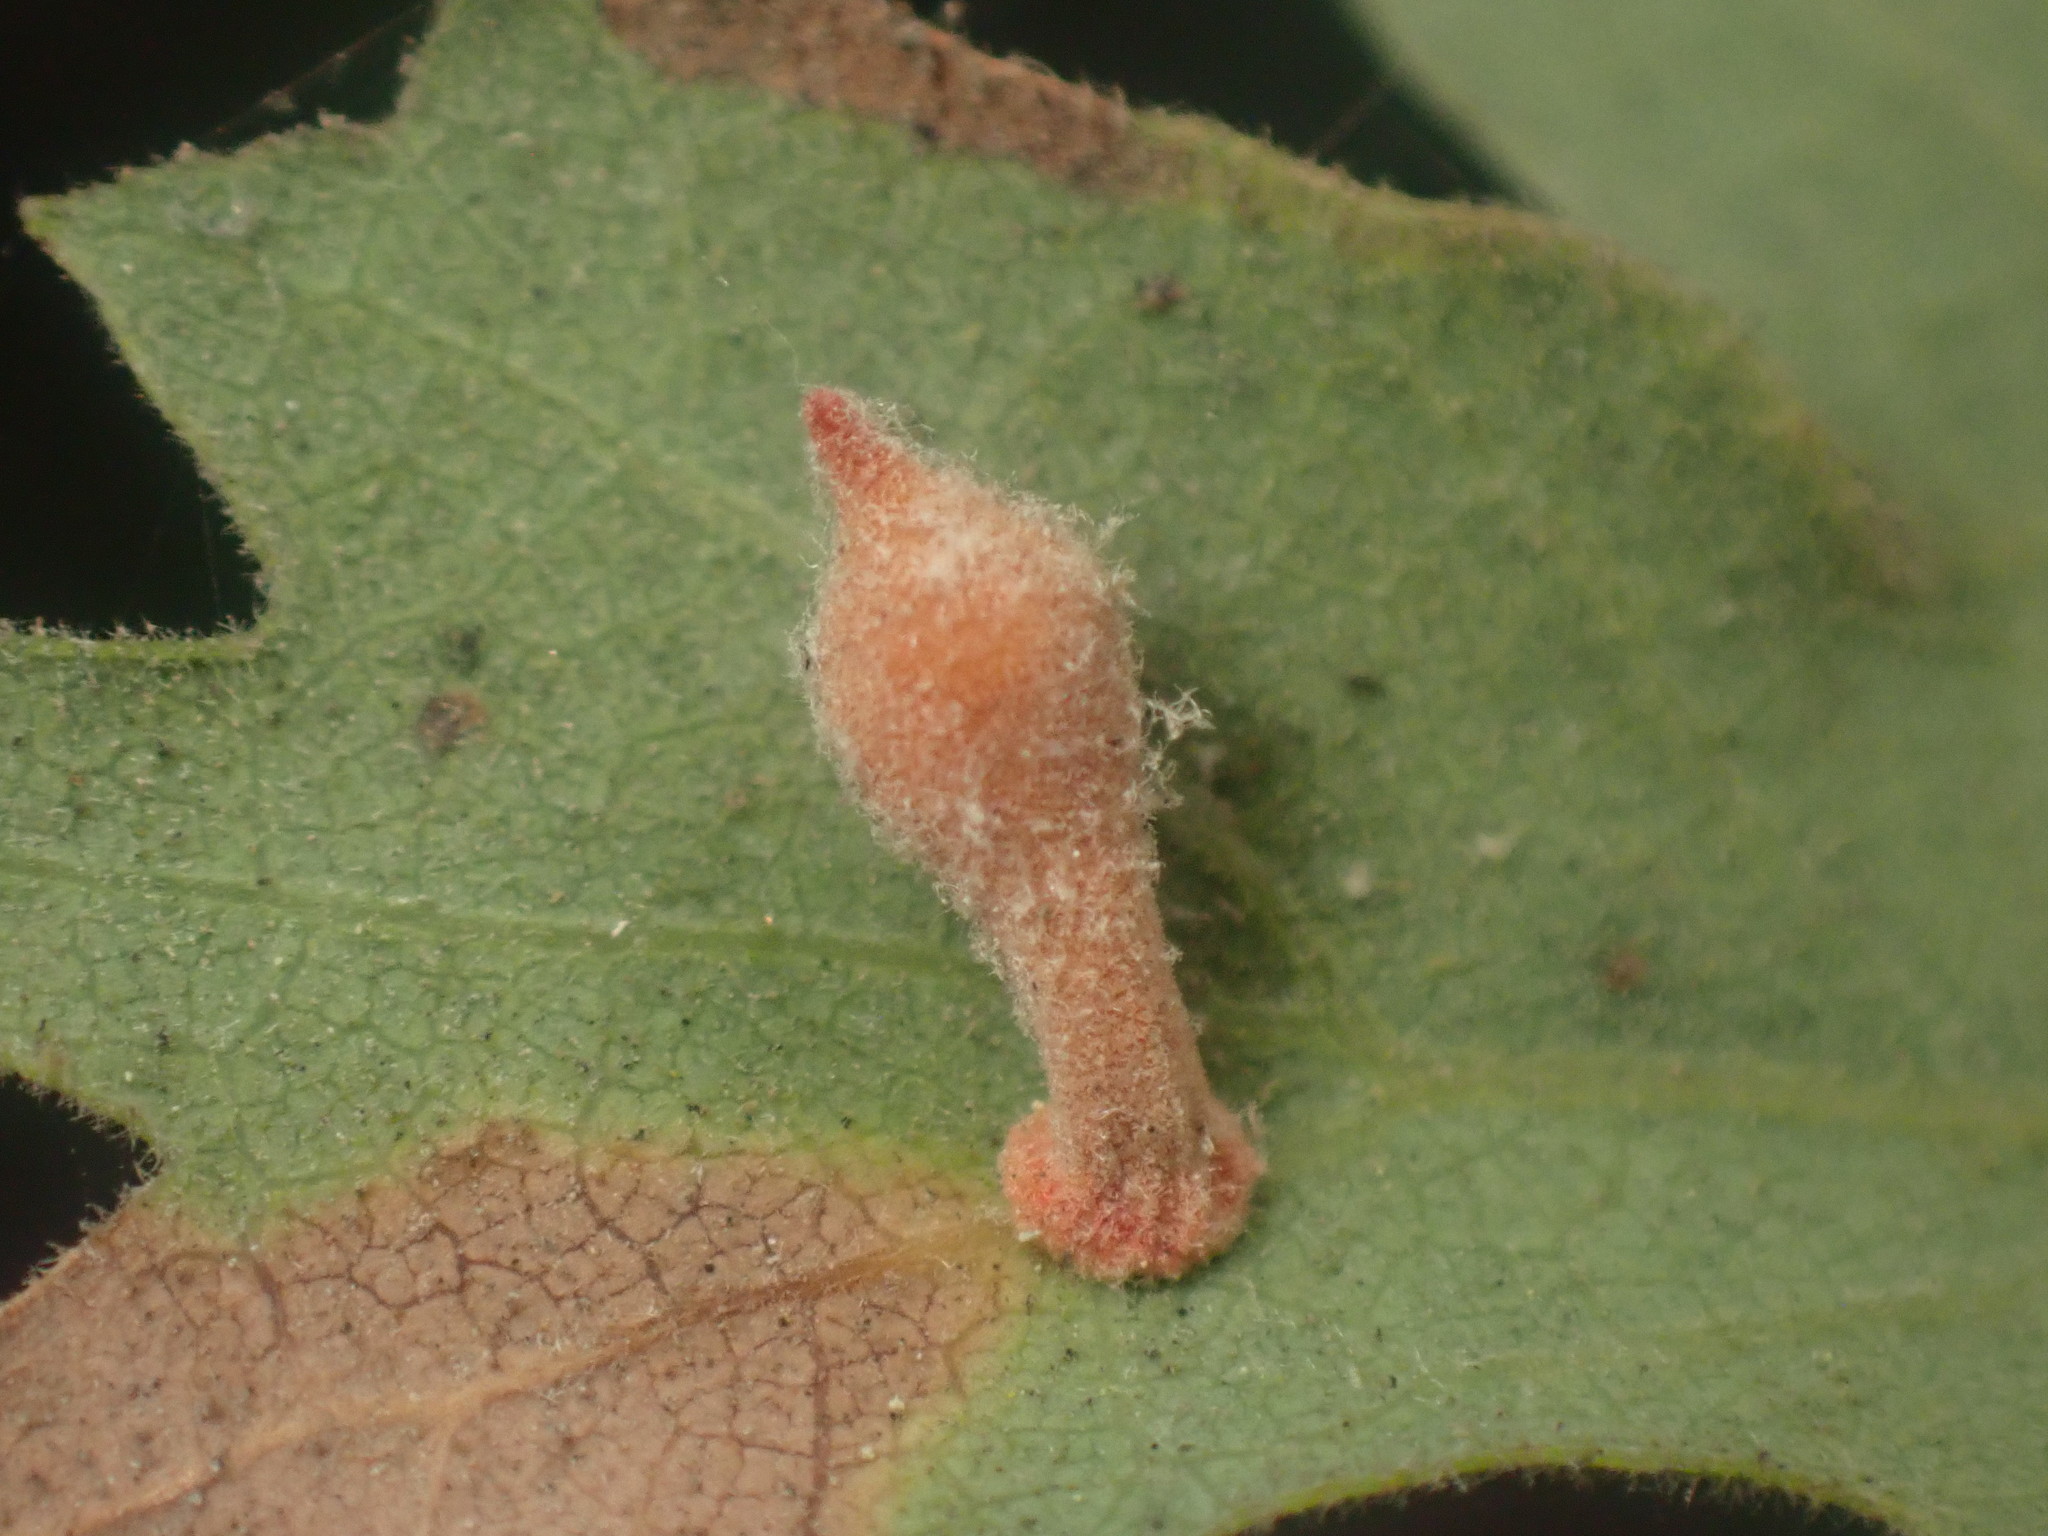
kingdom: Animalia
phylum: Arthropoda
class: Insecta
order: Hymenoptera
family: Cynipidae
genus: Atrusca
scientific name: Atrusca
